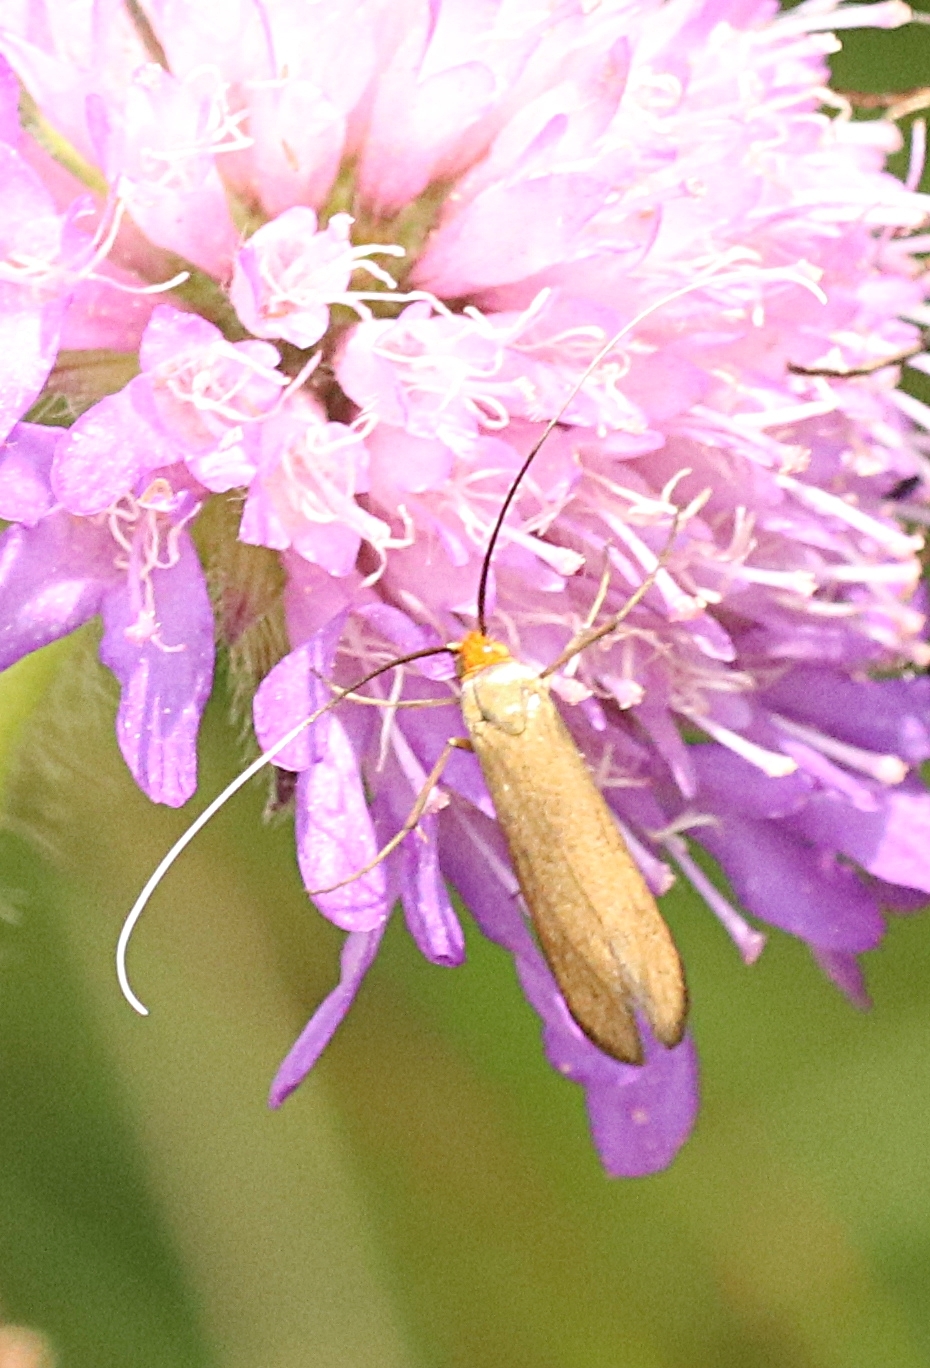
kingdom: Animalia
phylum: Arthropoda
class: Insecta
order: Lepidoptera
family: Adelidae
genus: Nemophora
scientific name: Nemophora metallica
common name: Brassy long-horn
